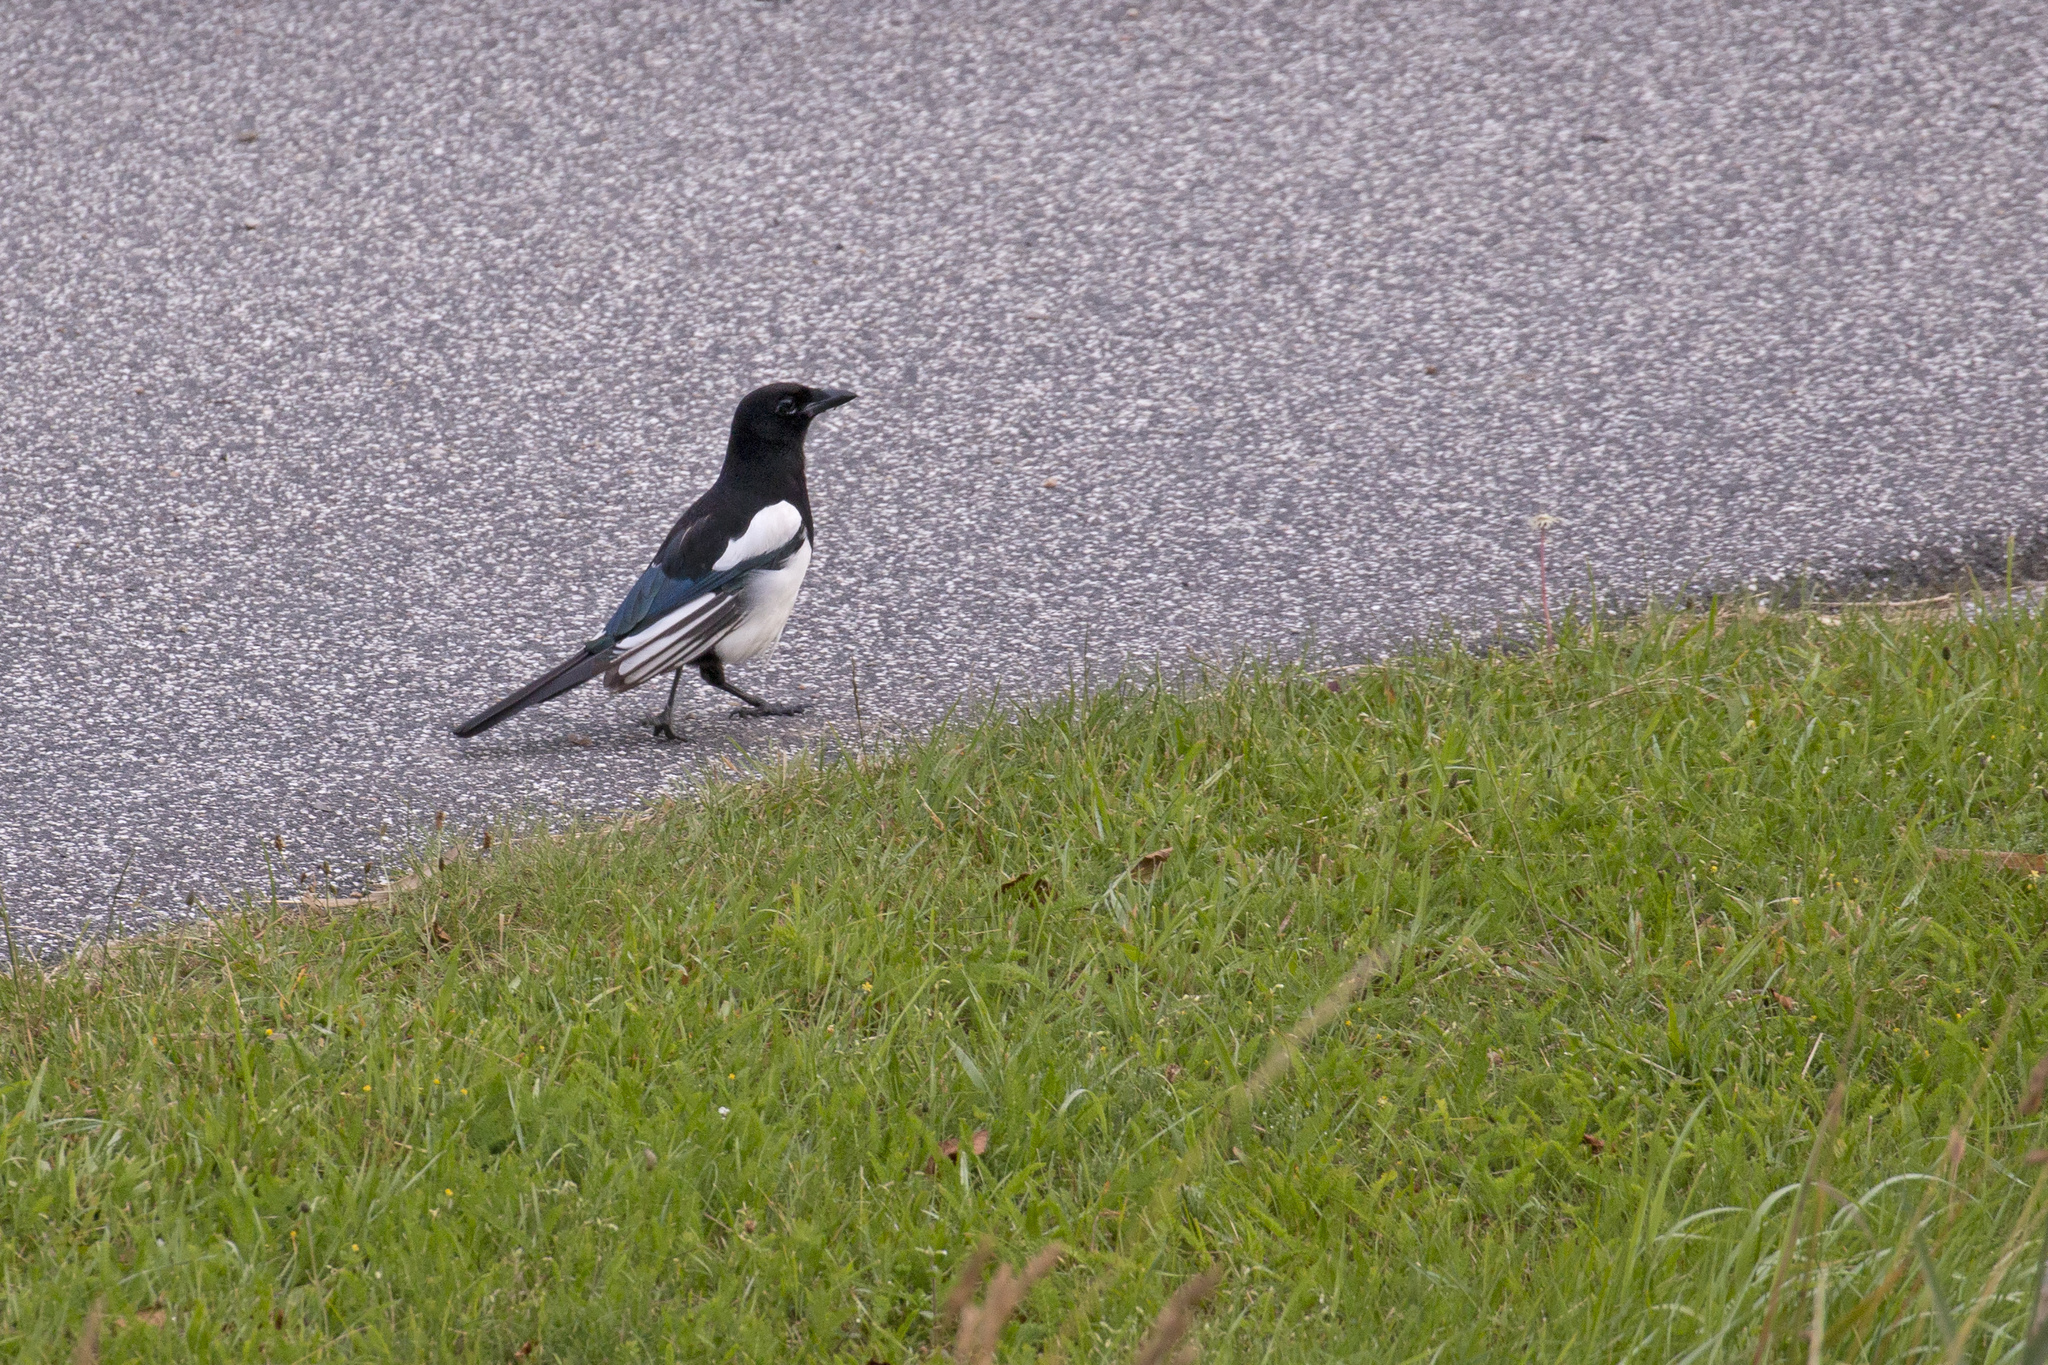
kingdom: Animalia
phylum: Chordata
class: Aves
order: Passeriformes
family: Corvidae
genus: Pica
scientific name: Pica pica
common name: Eurasian magpie
